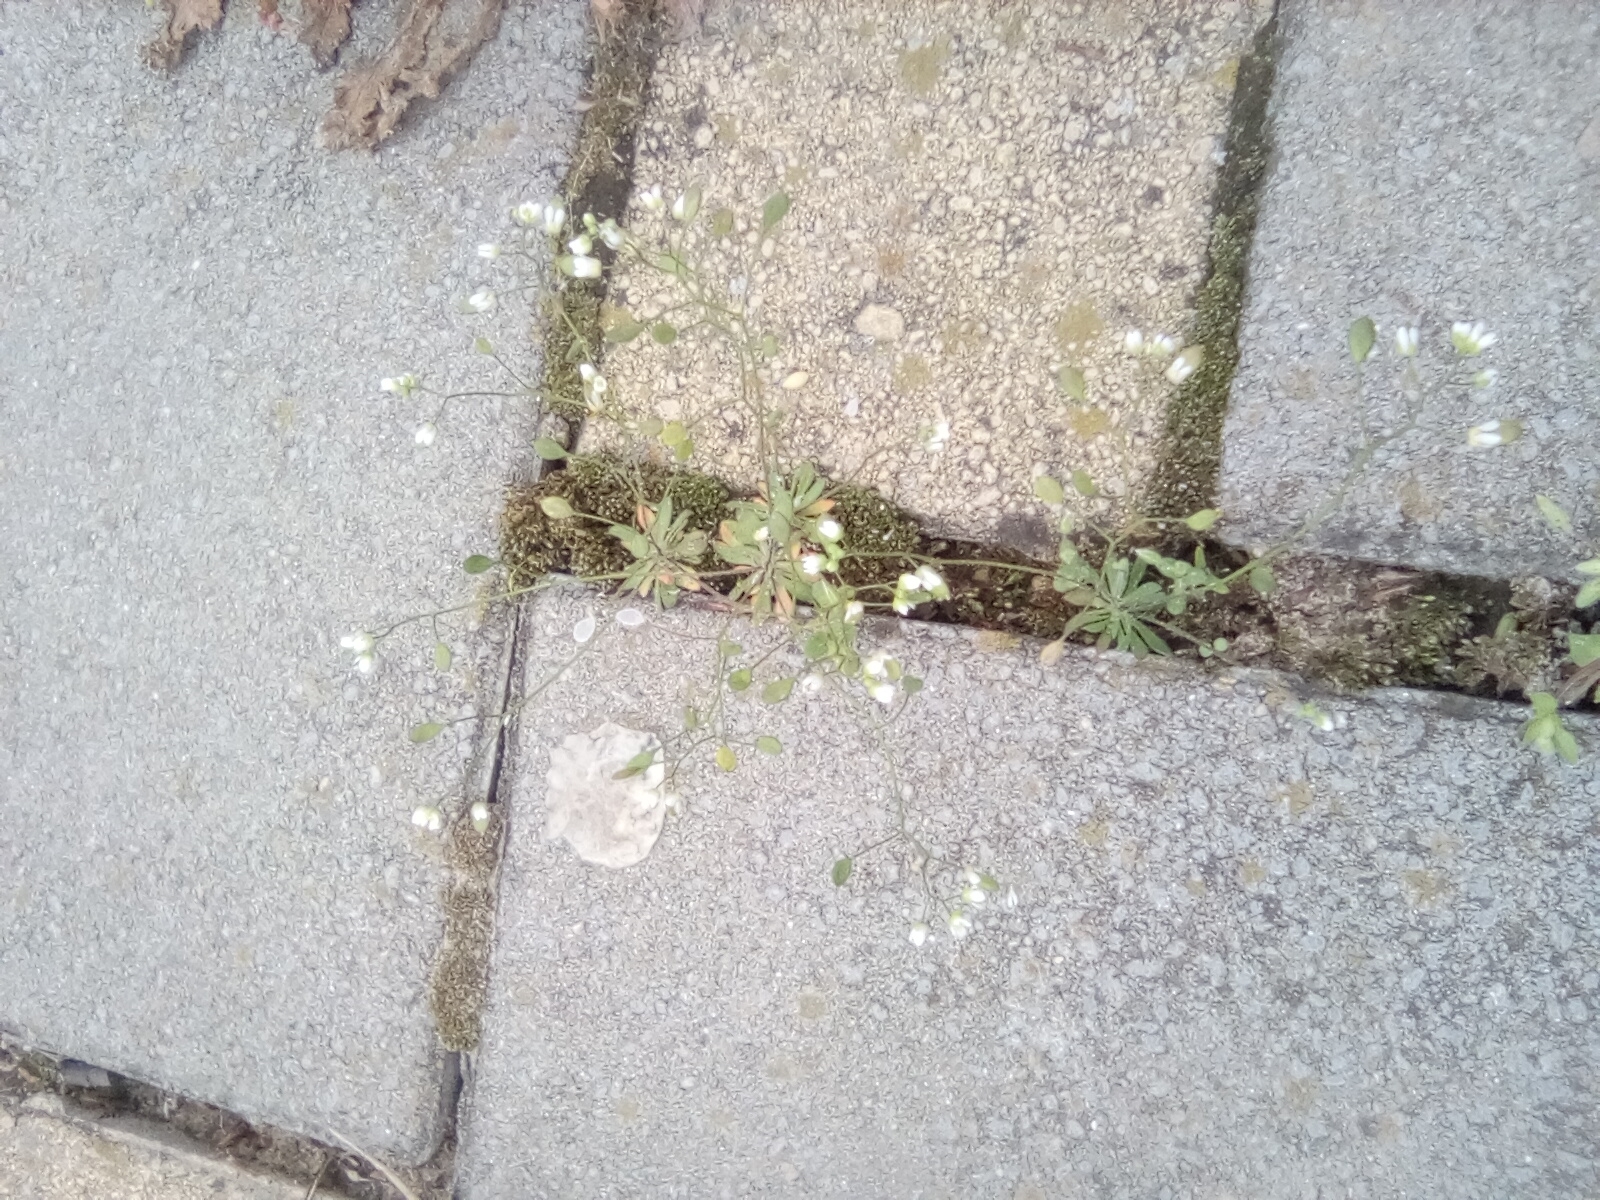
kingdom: Plantae
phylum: Tracheophyta
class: Magnoliopsida
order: Brassicales
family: Brassicaceae
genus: Draba
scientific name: Draba verna
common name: Spring draba
